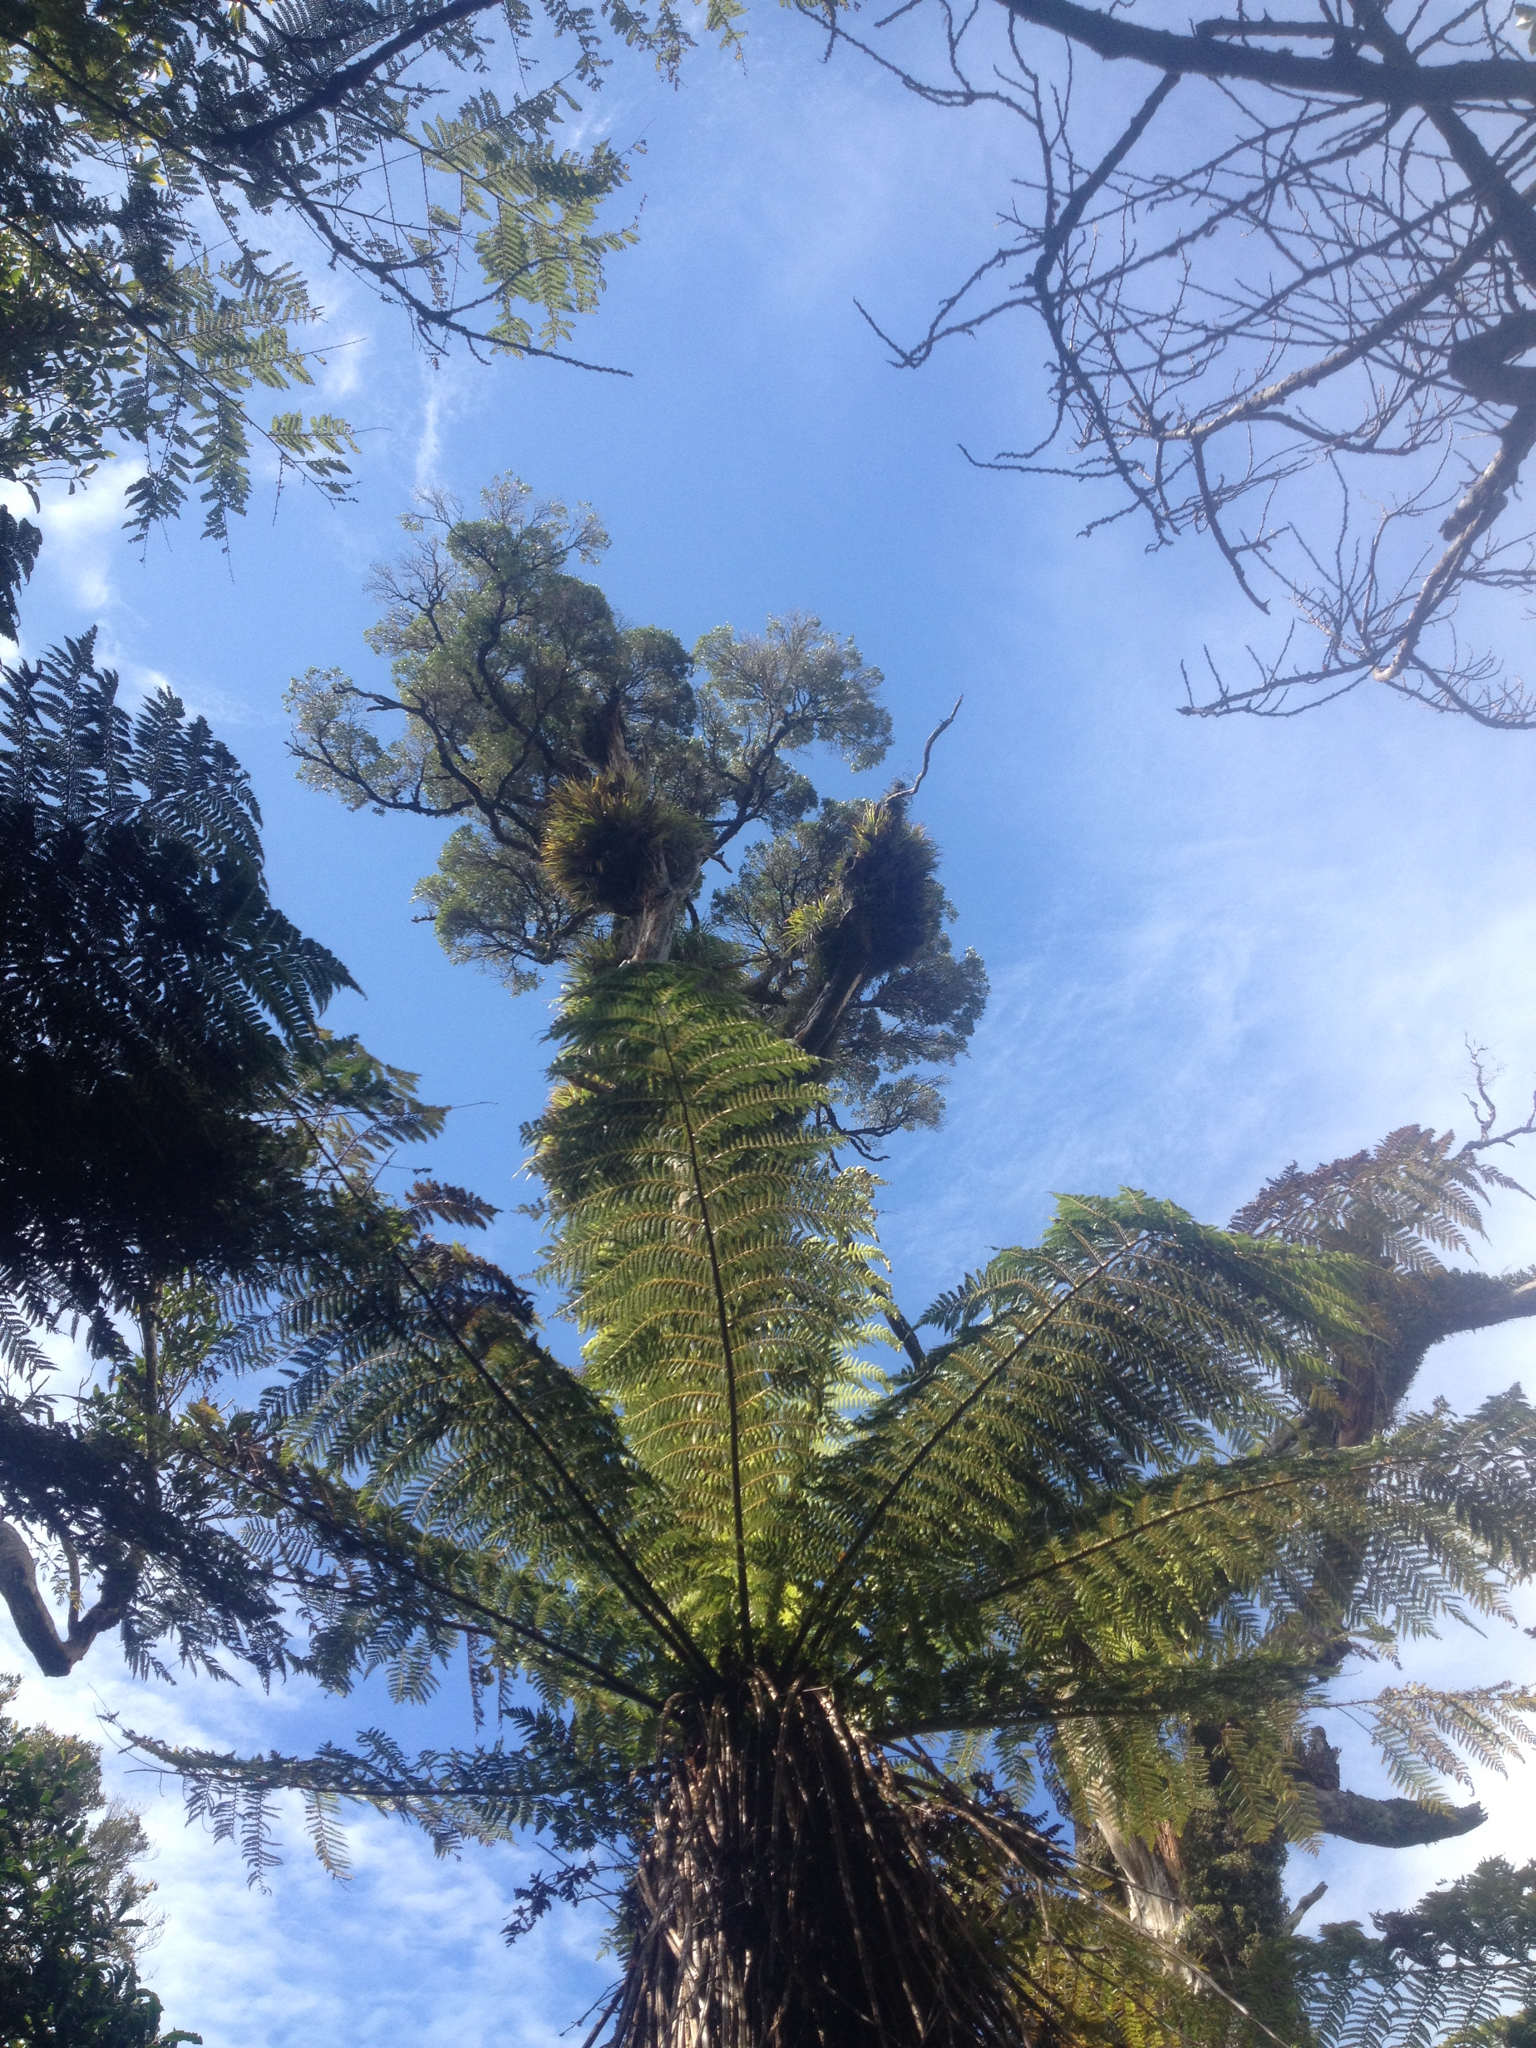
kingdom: Plantae
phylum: Tracheophyta
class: Magnoliopsida
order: Myrtales
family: Myrtaceae
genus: Metrosideros
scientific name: Metrosideros robusta
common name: Northern rata
